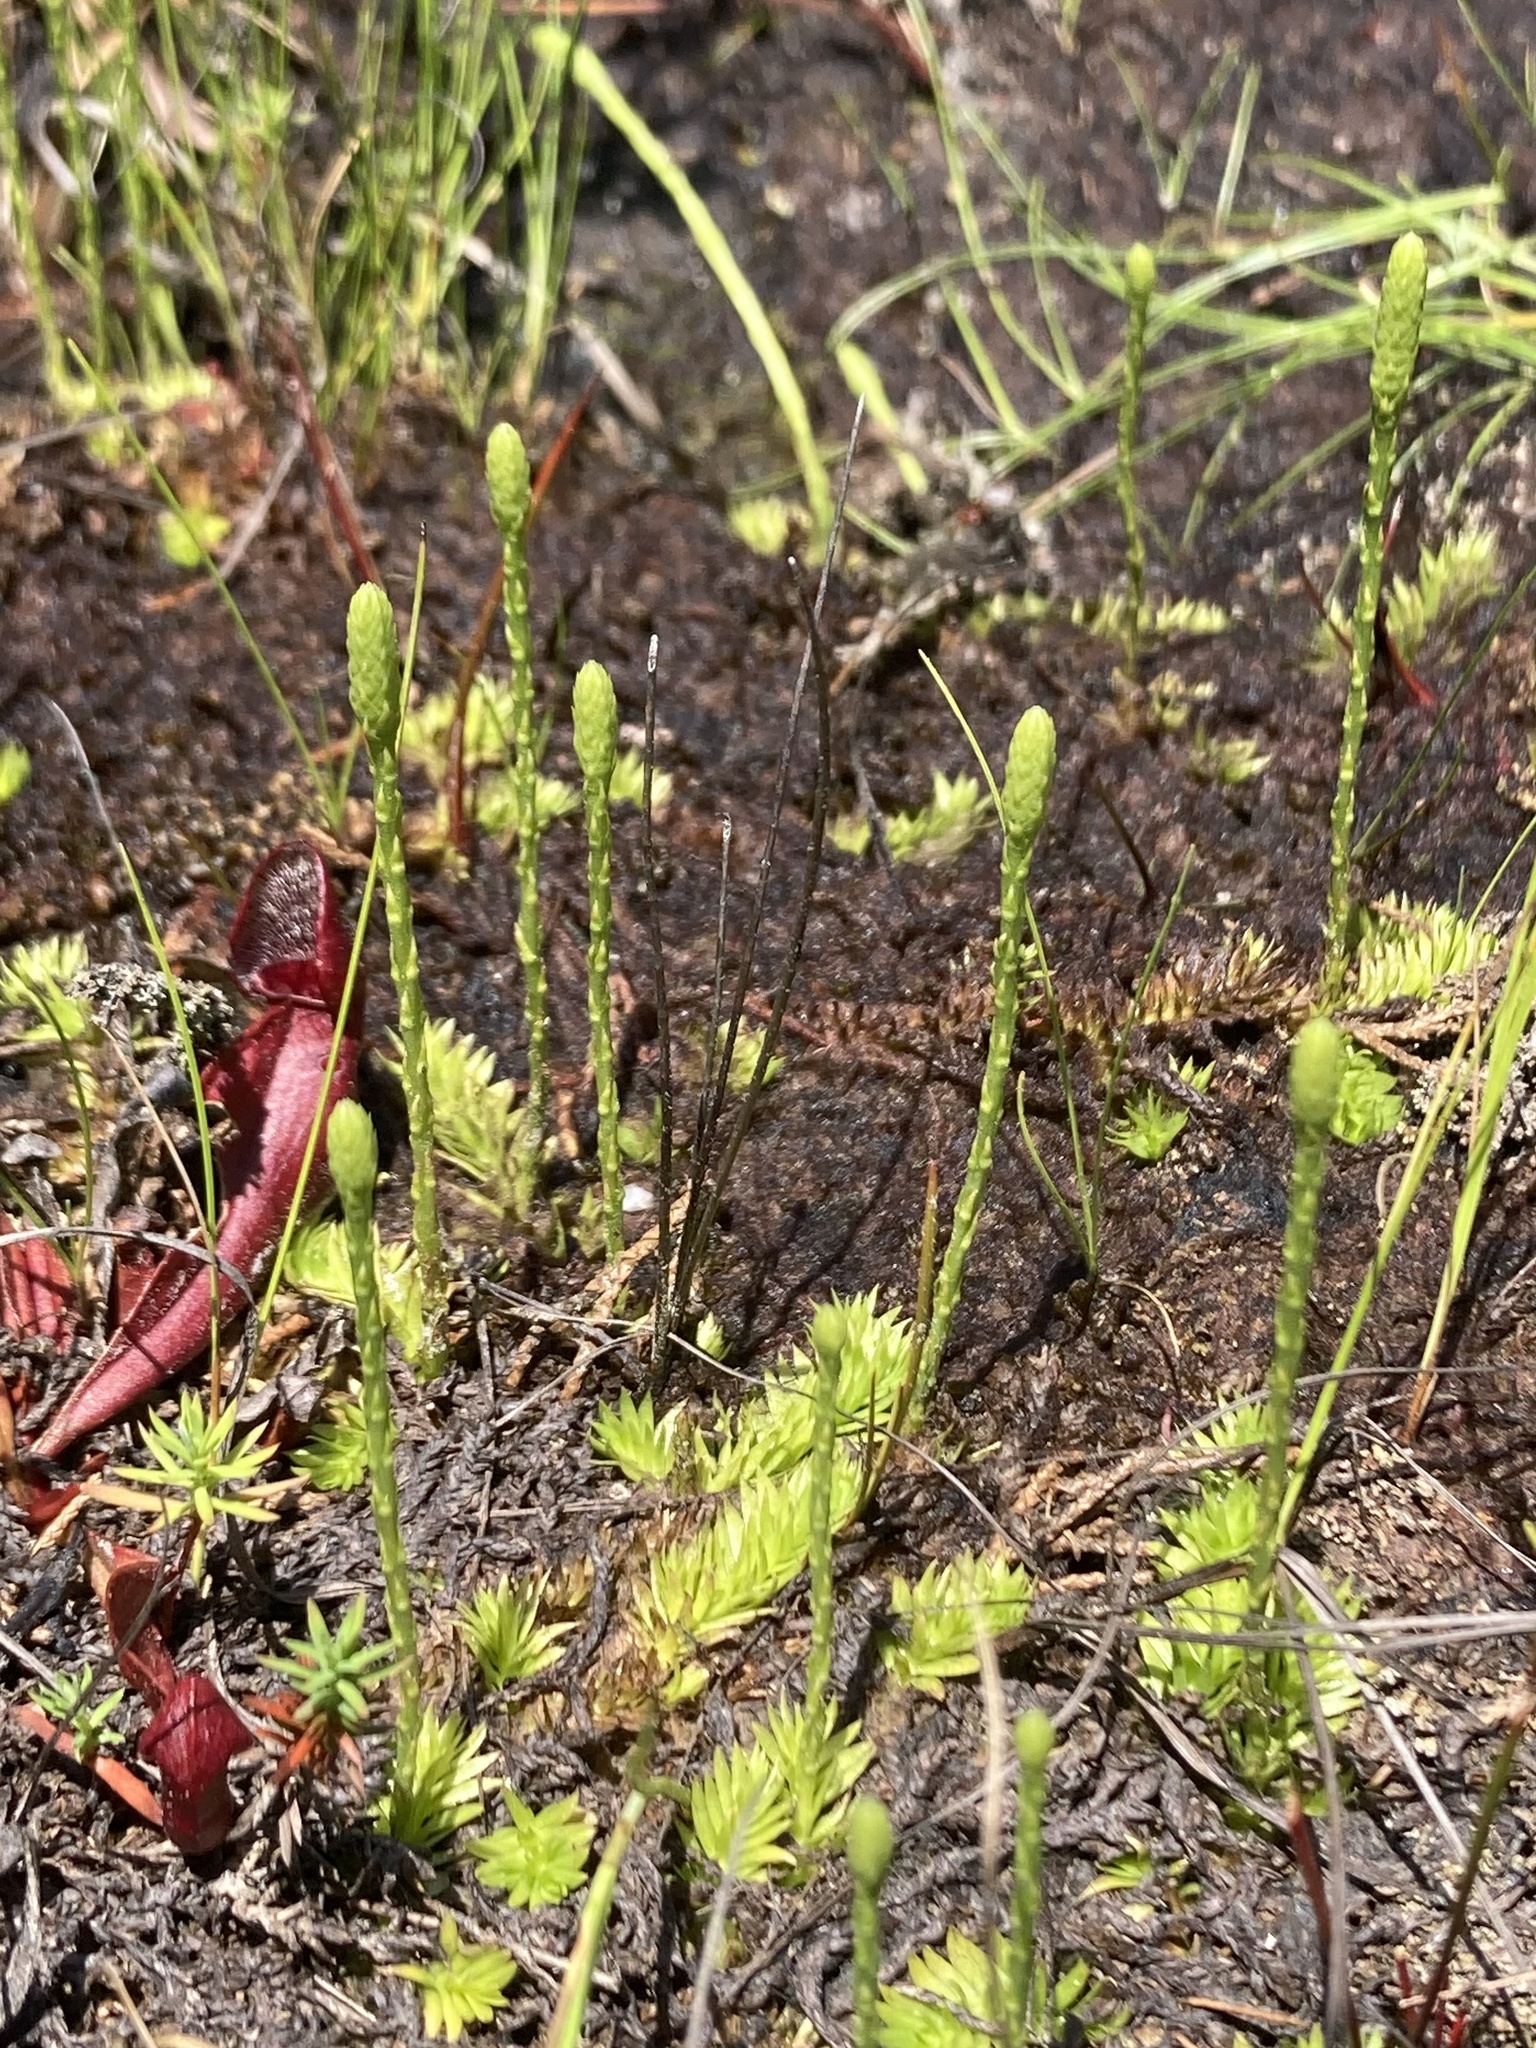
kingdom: Plantae
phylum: Tracheophyta
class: Lycopodiopsida
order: Lycopodiales
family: Lycopodiaceae
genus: Pseudolycopodiella
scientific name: Pseudolycopodiella caroliniana
